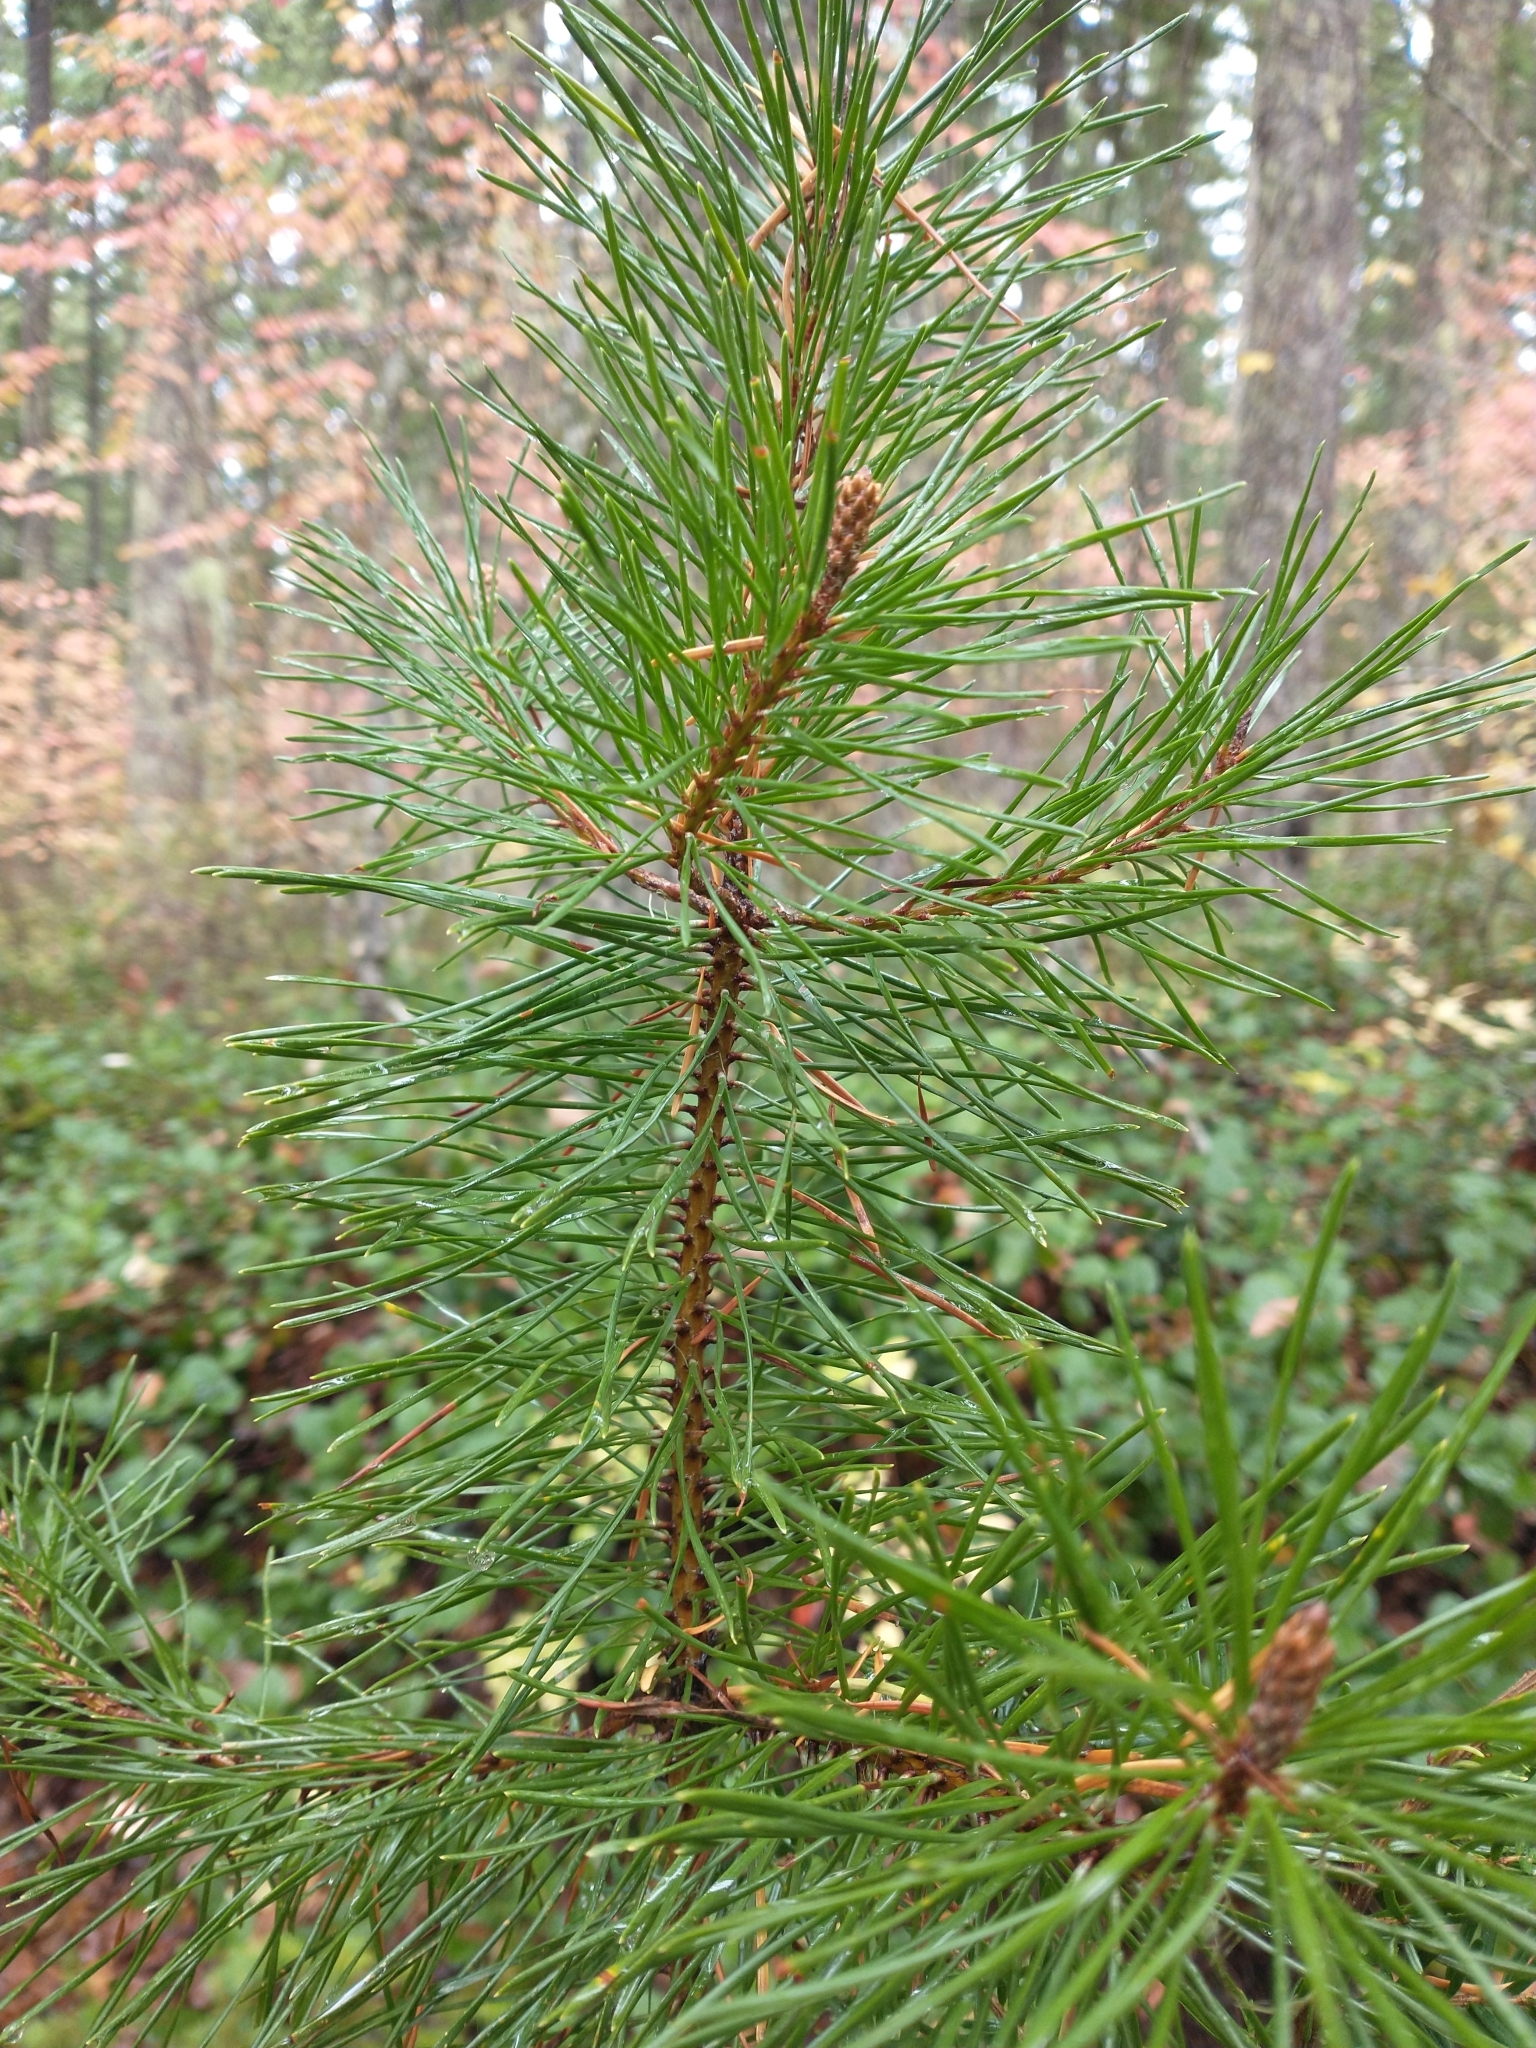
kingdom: Plantae
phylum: Tracheophyta
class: Pinopsida
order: Pinales
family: Pinaceae
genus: Pinus
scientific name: Pinus contorta
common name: Lodgepole pine
